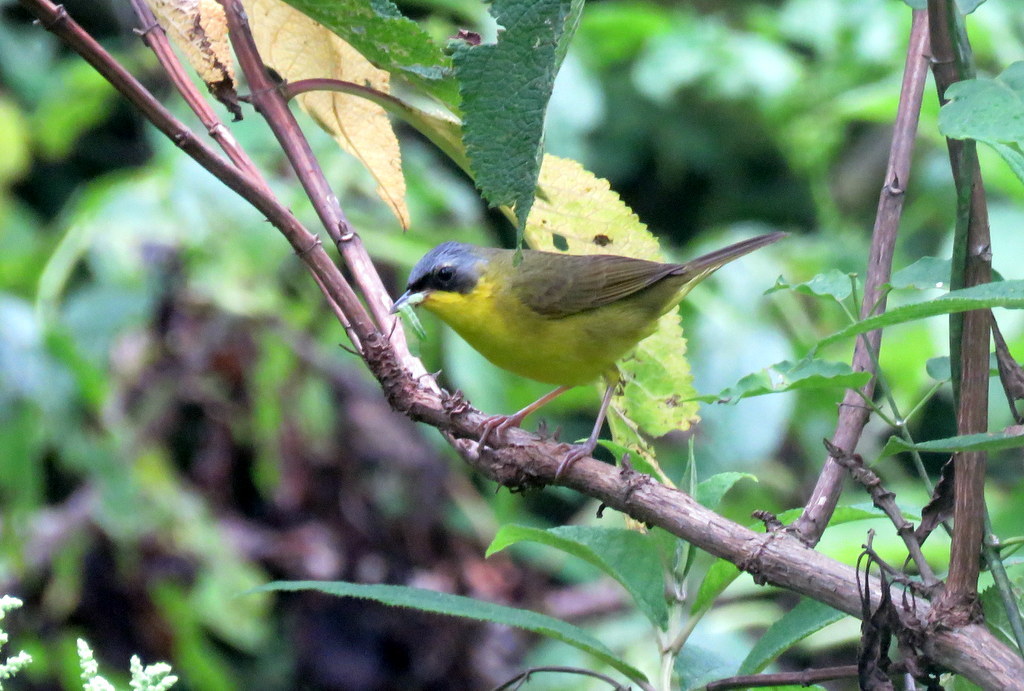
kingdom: Animalia
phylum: Chordata
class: Aves
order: Passeriformes
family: Parulidae
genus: Geothlypis
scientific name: Geothlypis velata
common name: Southern yellowthroat
